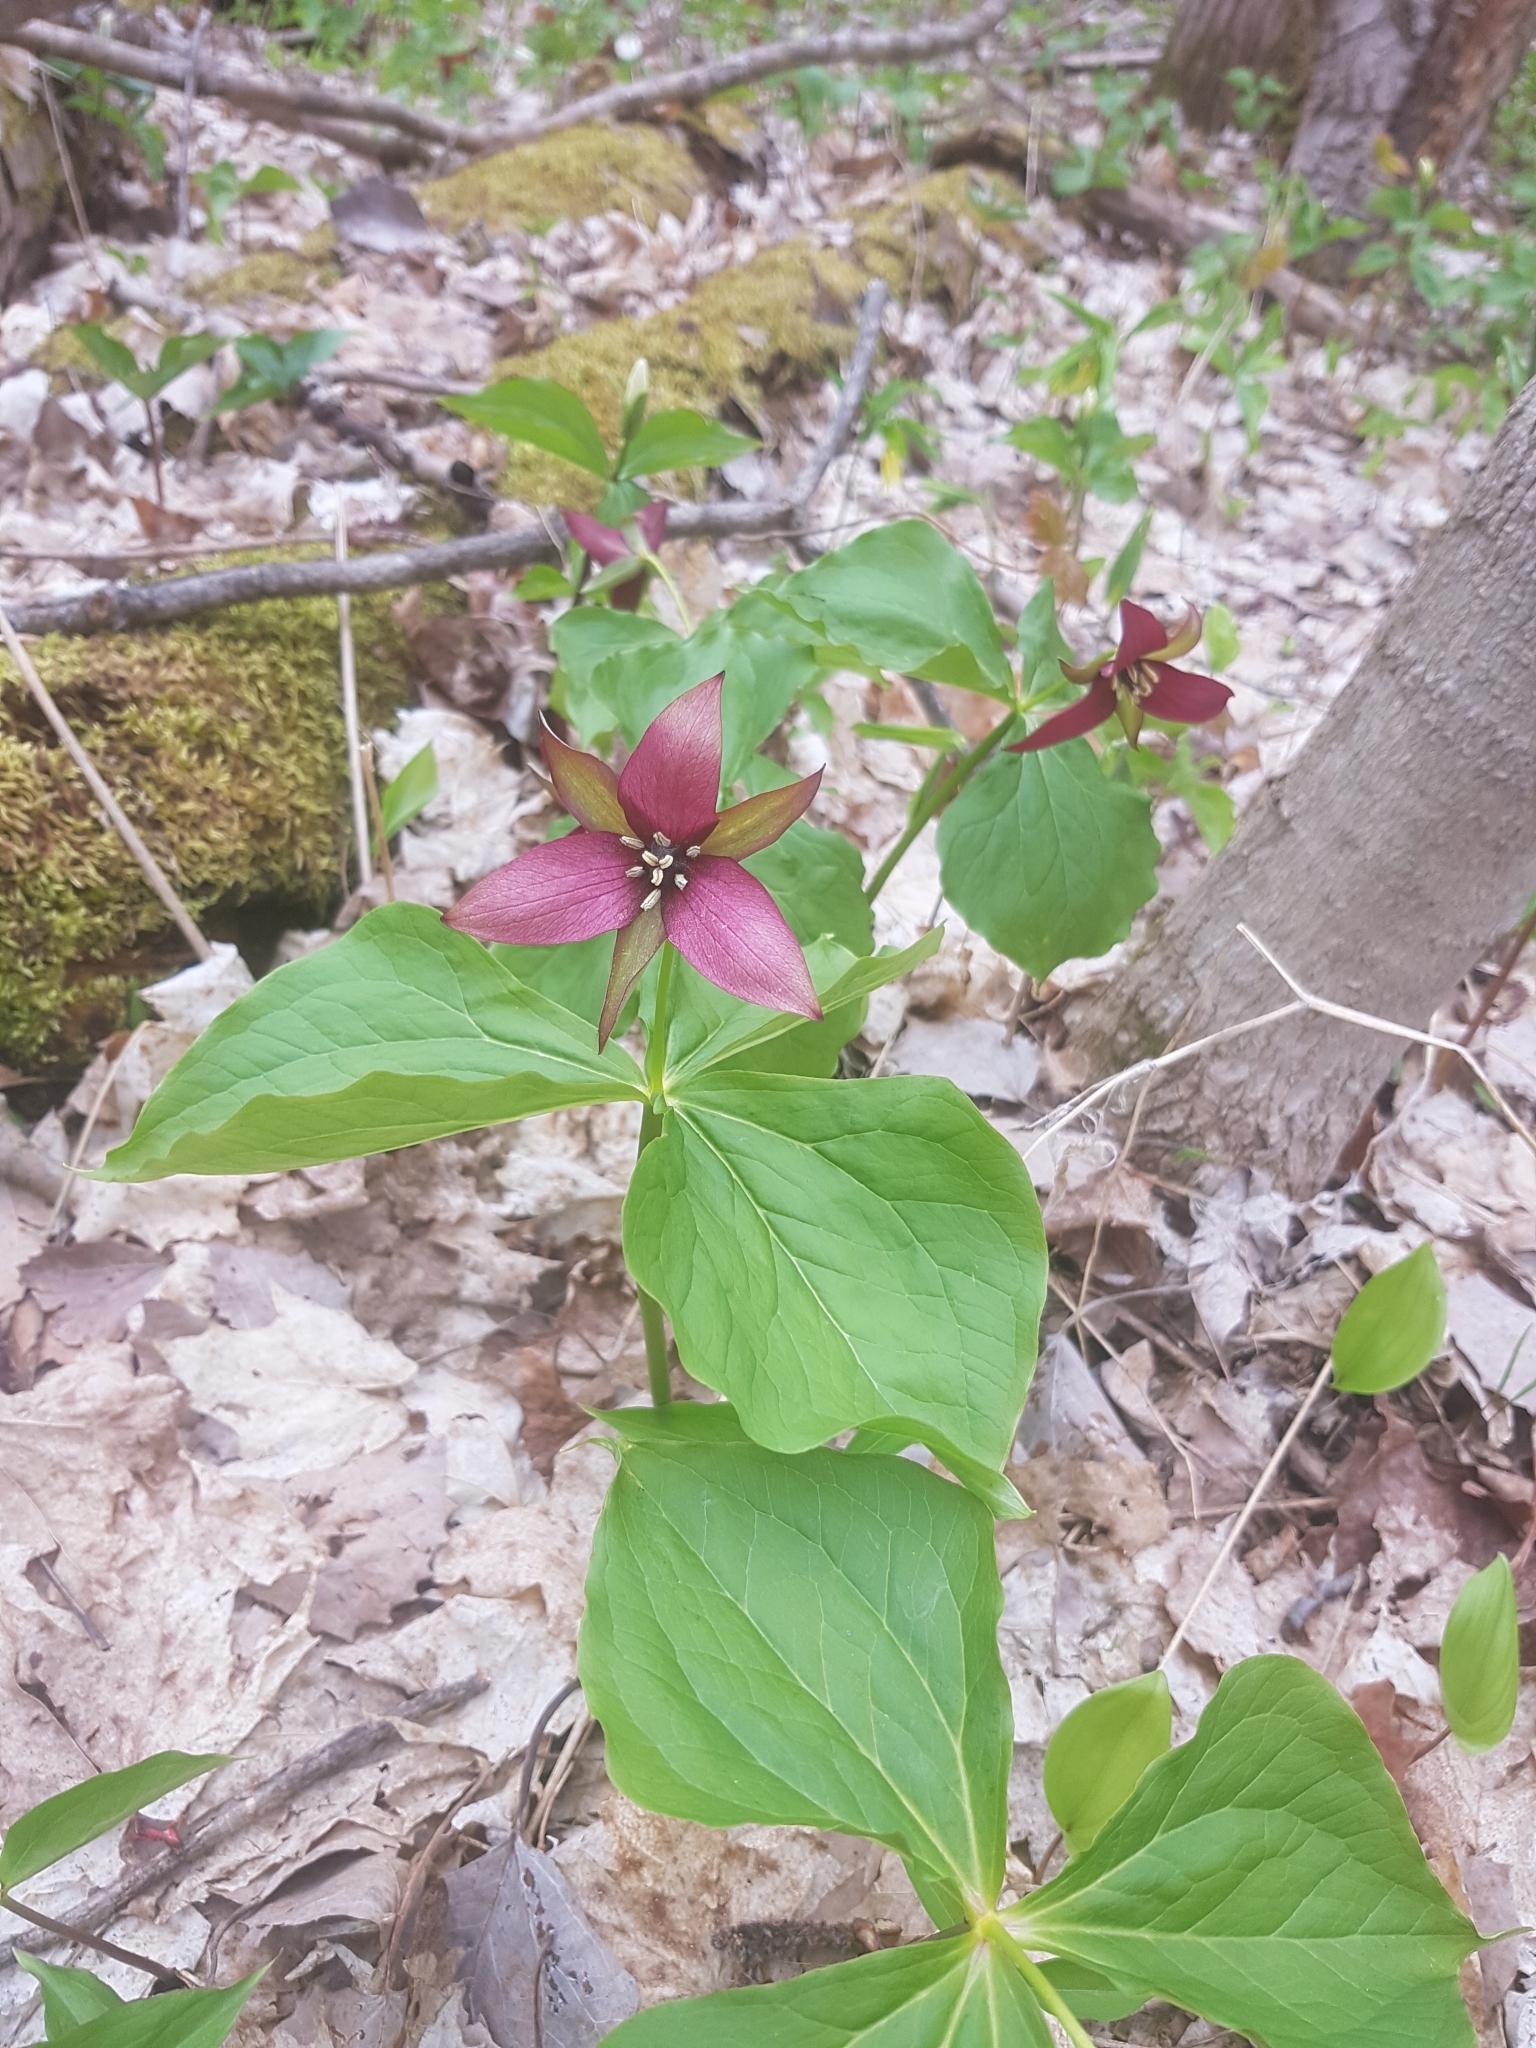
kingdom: Plantae
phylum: Tracheophyta
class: Liliopsida
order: Liliales
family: Melanthiaceae
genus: Trillium
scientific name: Trillium erectum
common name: Purple trillium
